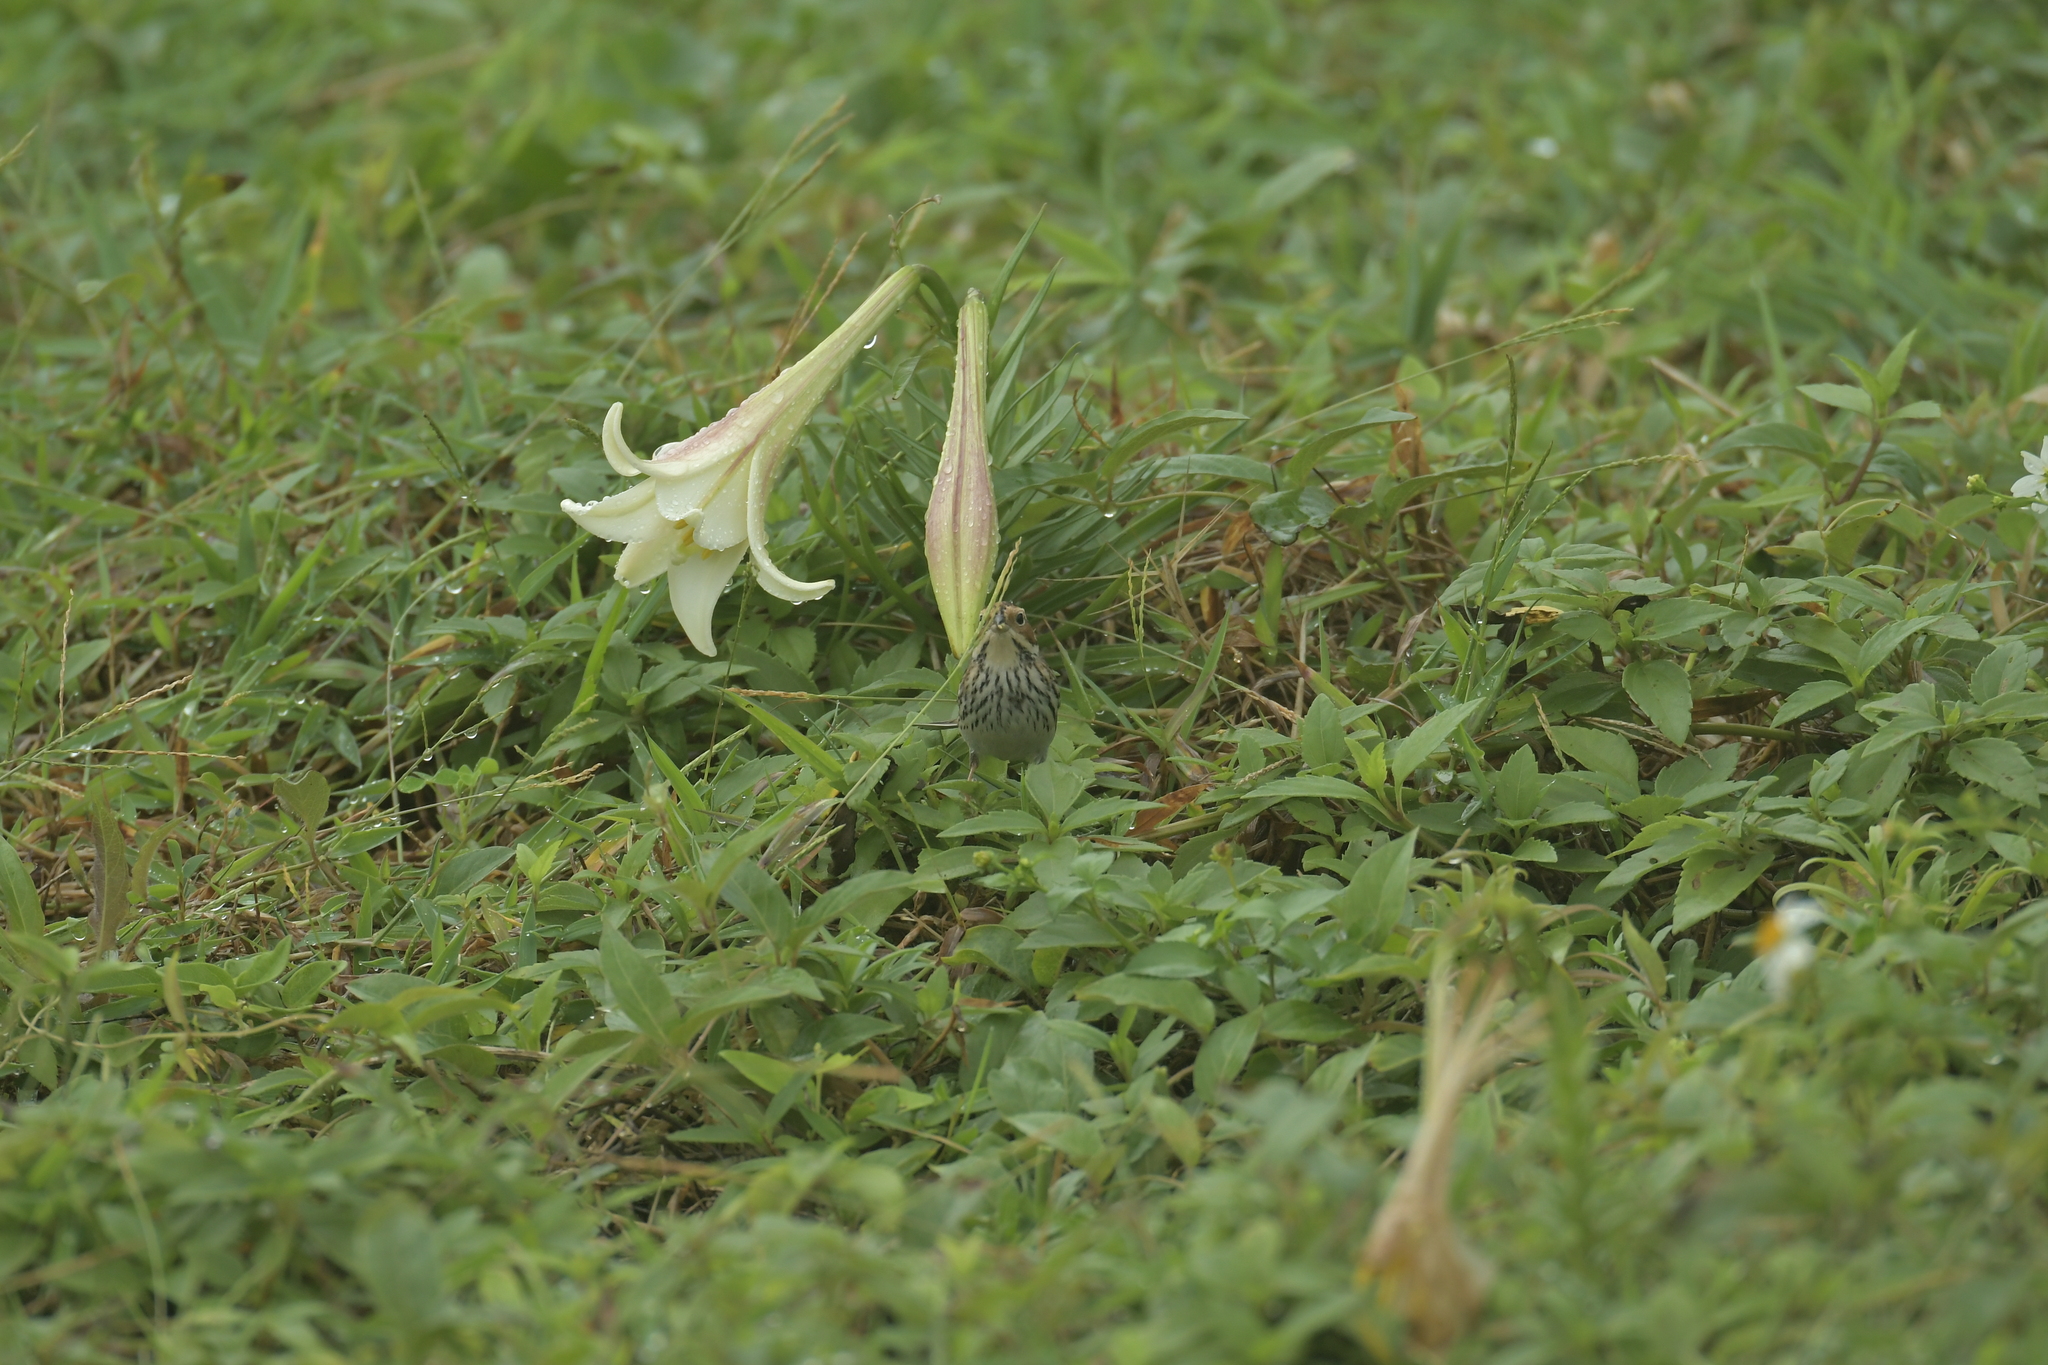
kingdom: Plantae
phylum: Tracheophyta
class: Liliopsida
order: Liliales
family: Liliaceae
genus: Lilium
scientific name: Lilium longiflorum
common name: Easter lily
